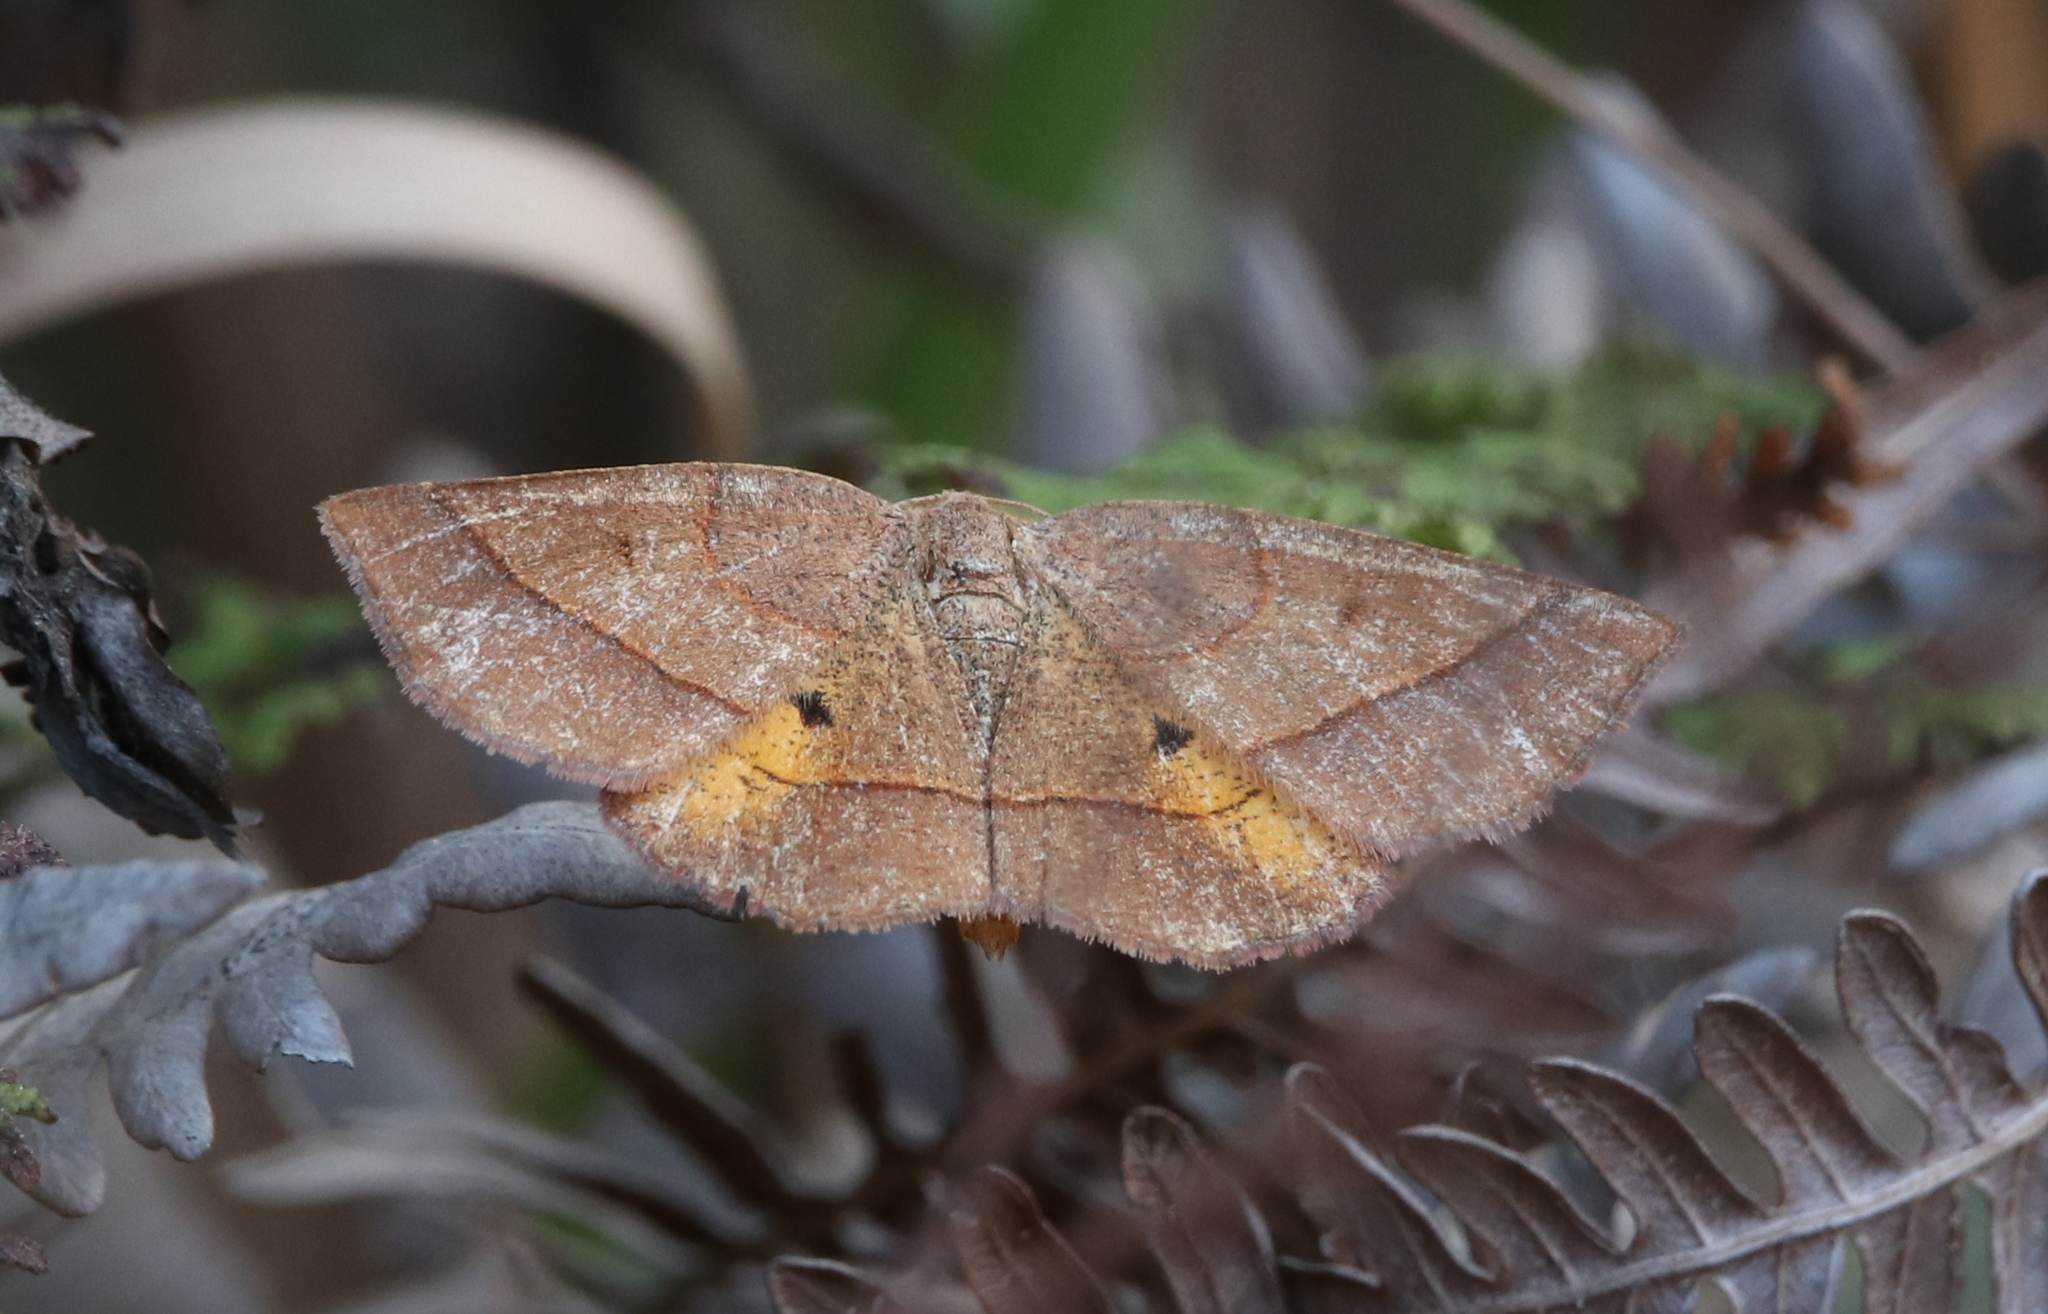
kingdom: Animalia
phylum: Arthropoda
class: Insecta
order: Lepidoptera
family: Geometridae
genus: Metarranthis
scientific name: Metarranthis obfirmaria
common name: Yellow-washed metarranthis
